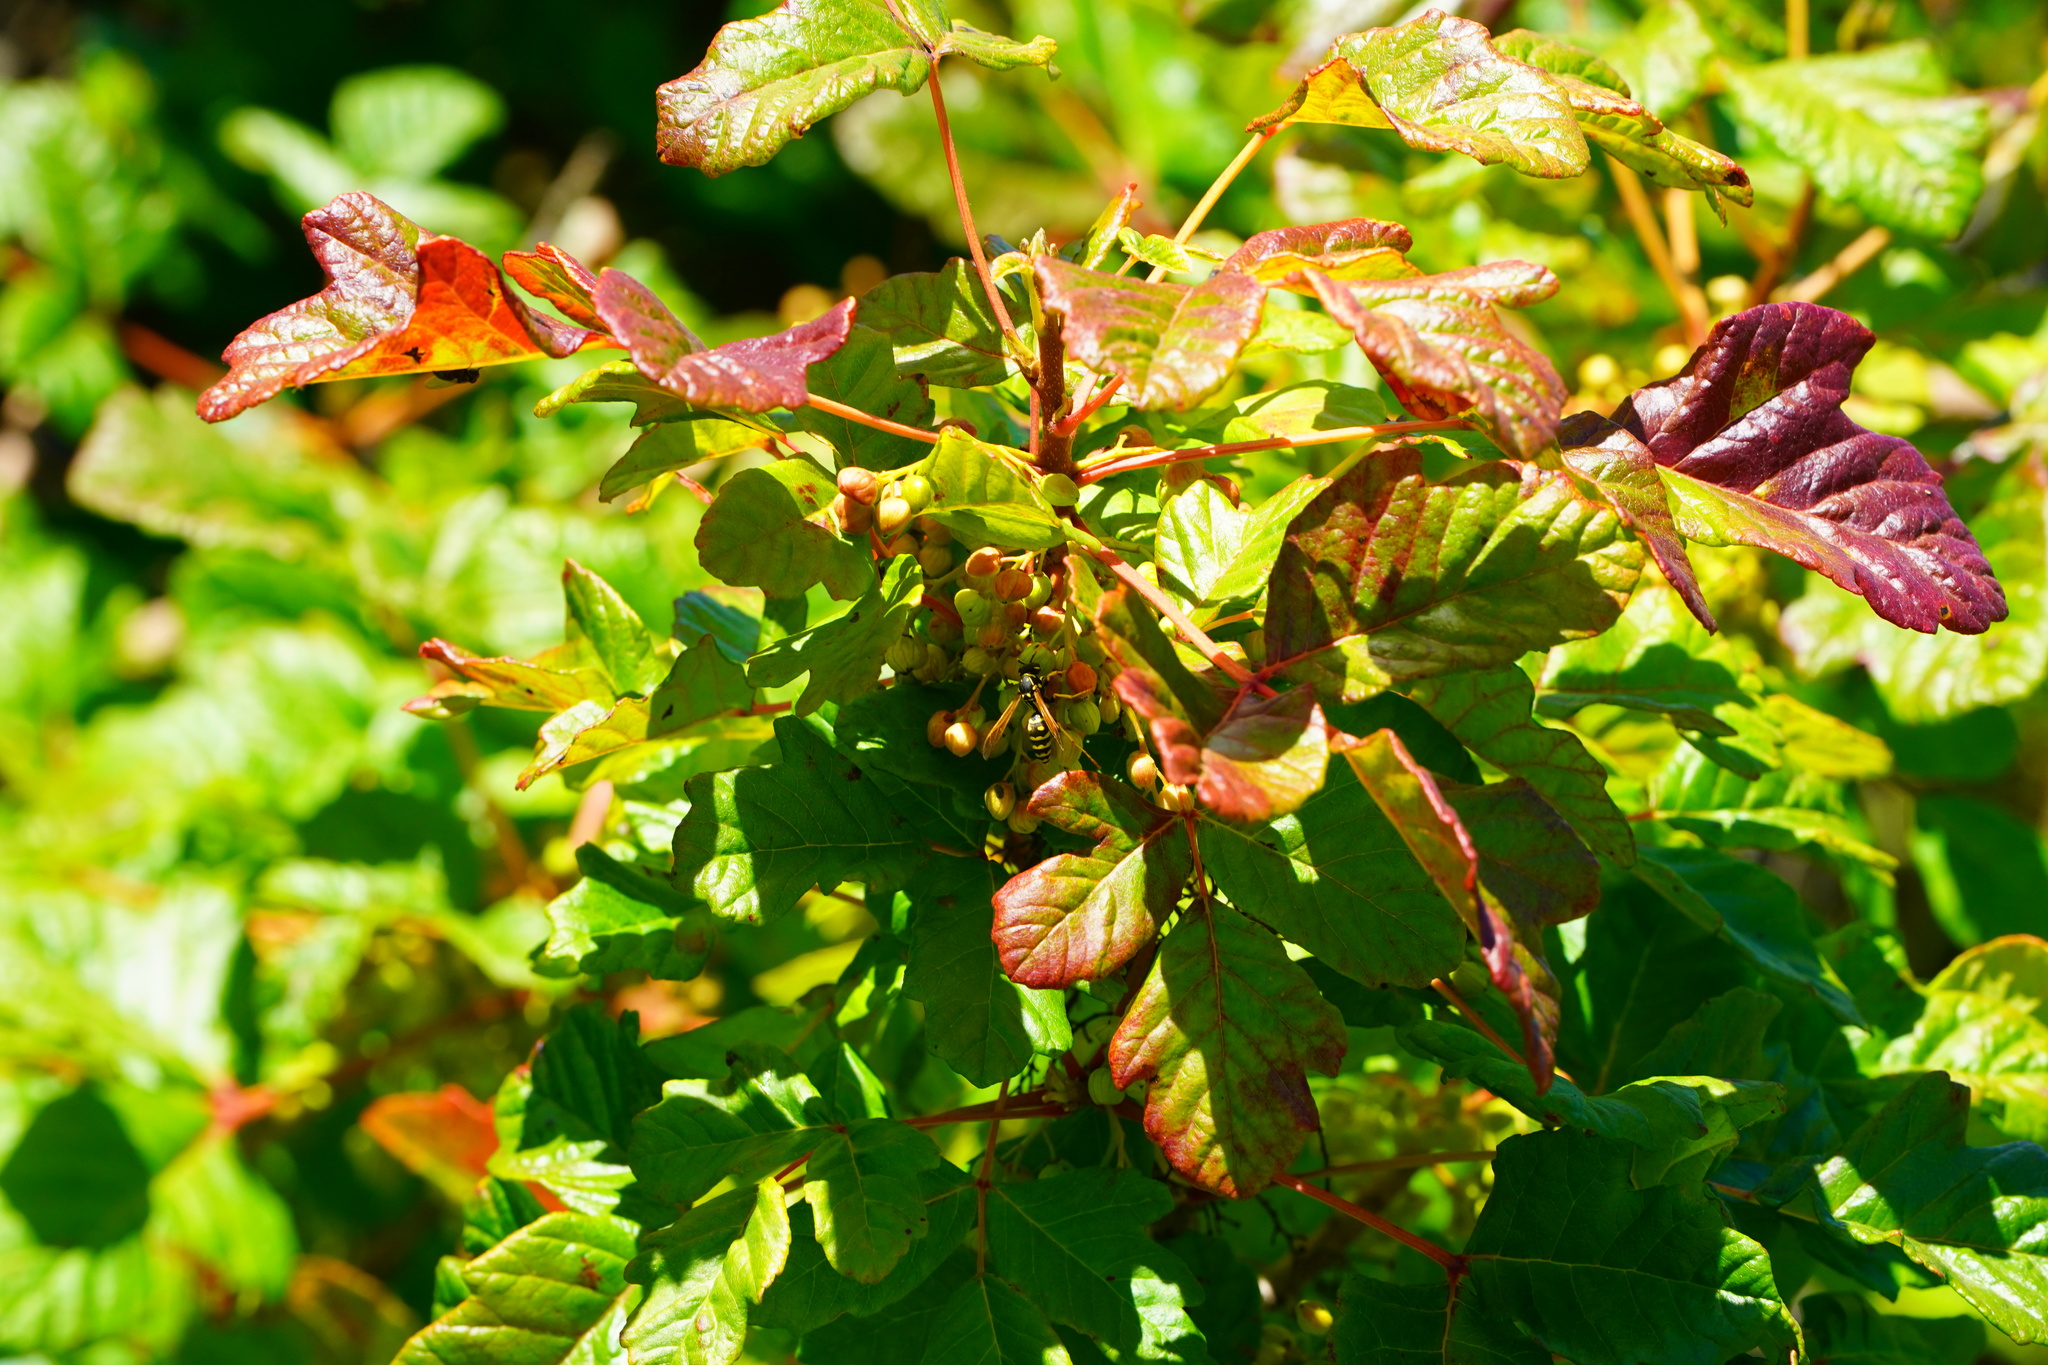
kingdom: Plantae
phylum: Tracheophyta
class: Magnoliopsida
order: Sapindales
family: Anacardiaceae
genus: Toxicodendron
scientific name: Toxicodendron diversilobum
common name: Pacific poison-oak
